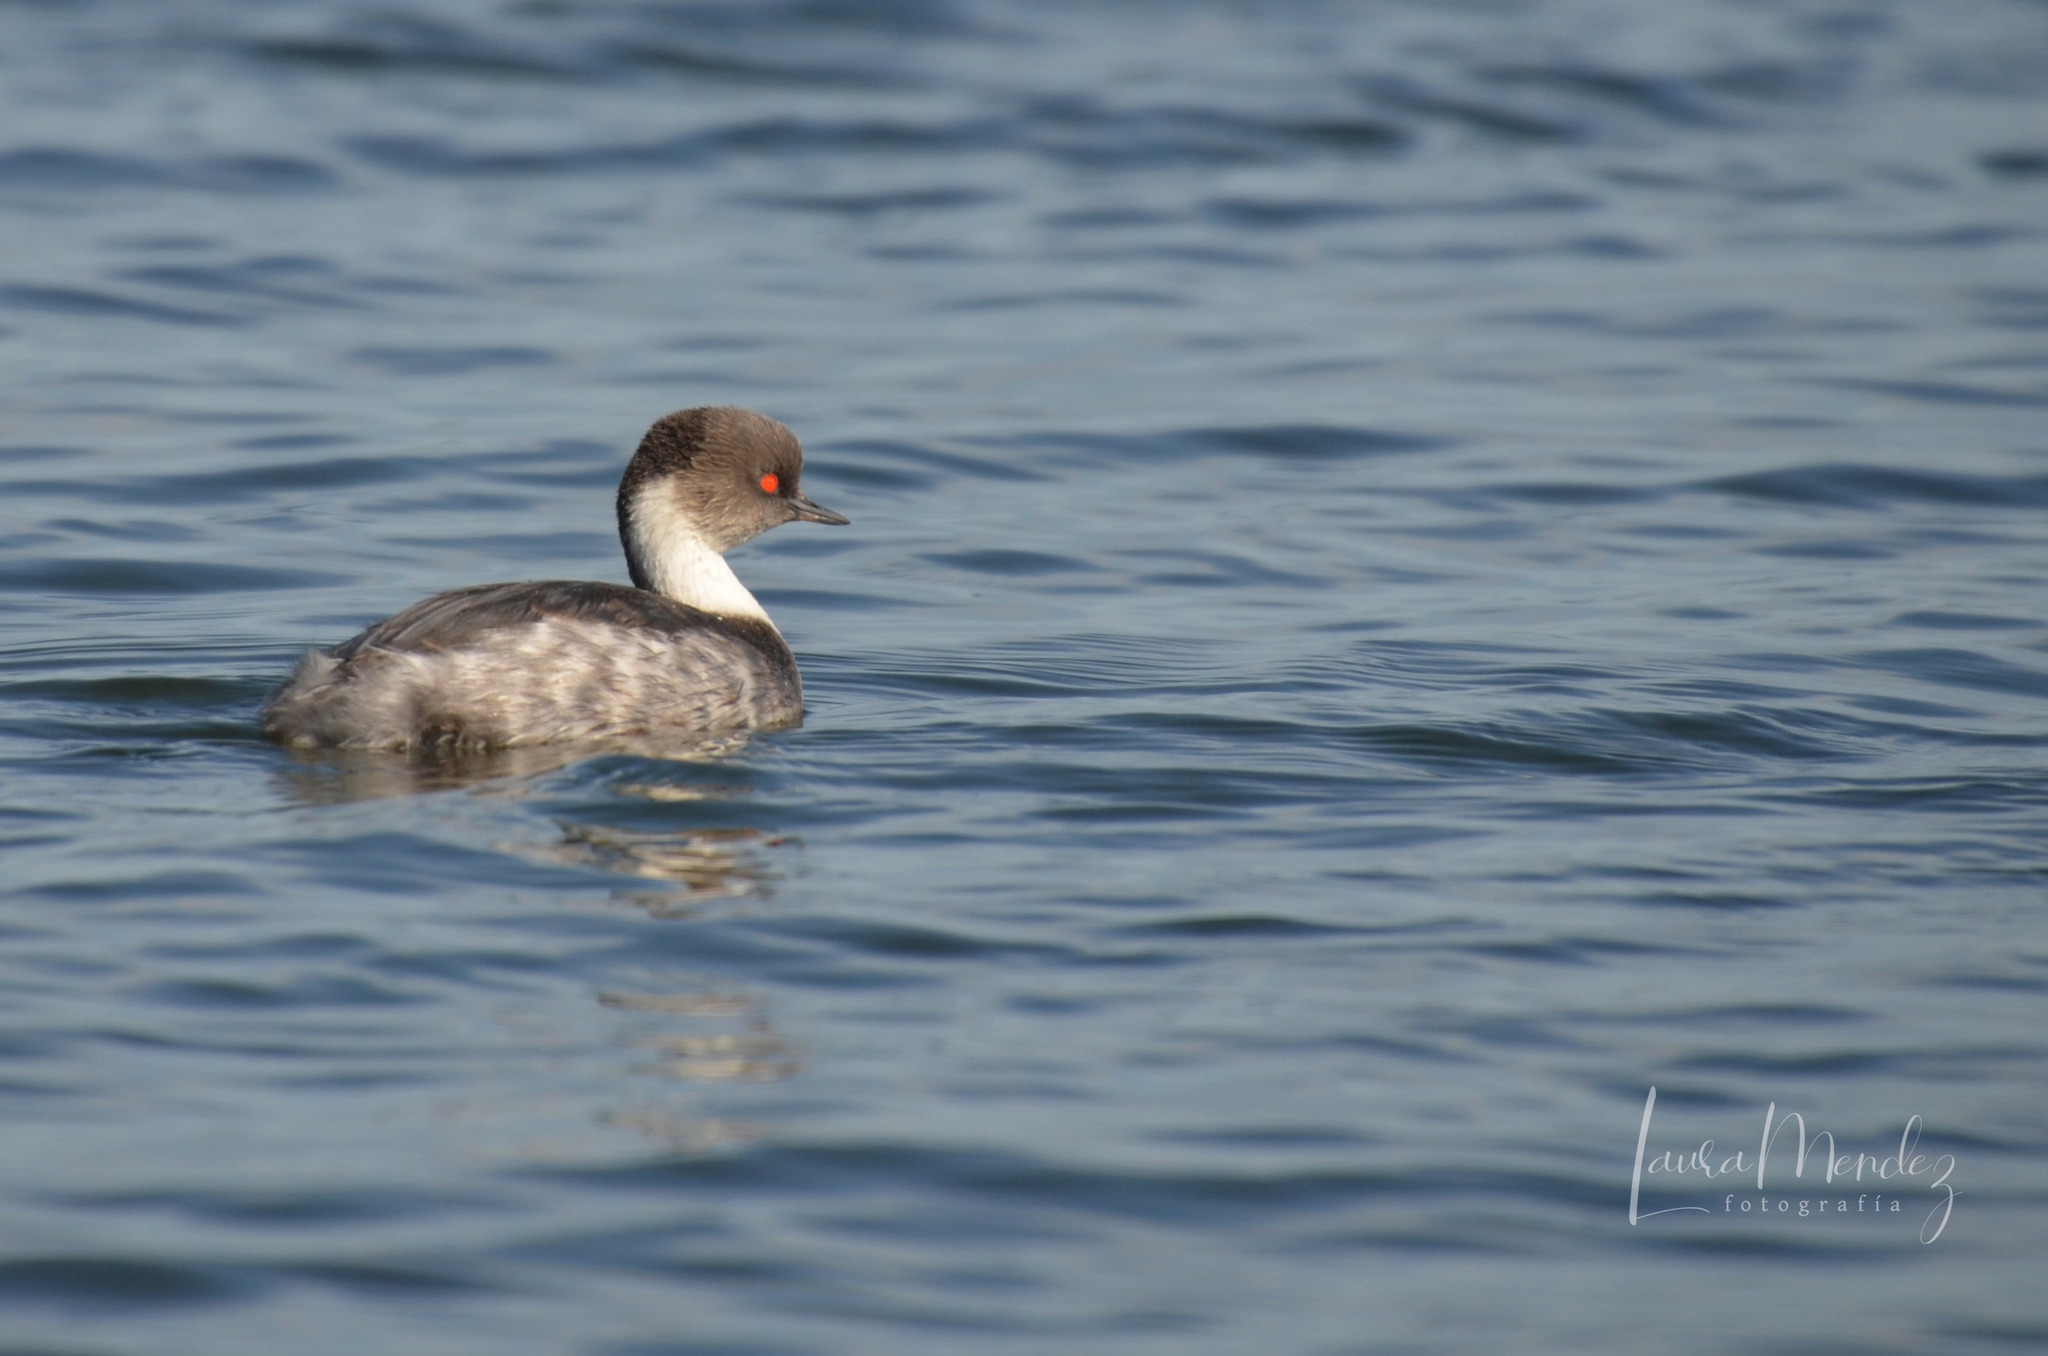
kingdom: Animalia
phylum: Chordata
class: Aves
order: Podicipediformes
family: Podicipedidae
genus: Podiceps
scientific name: Podiceps occipitalis
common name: Silvery grebe
